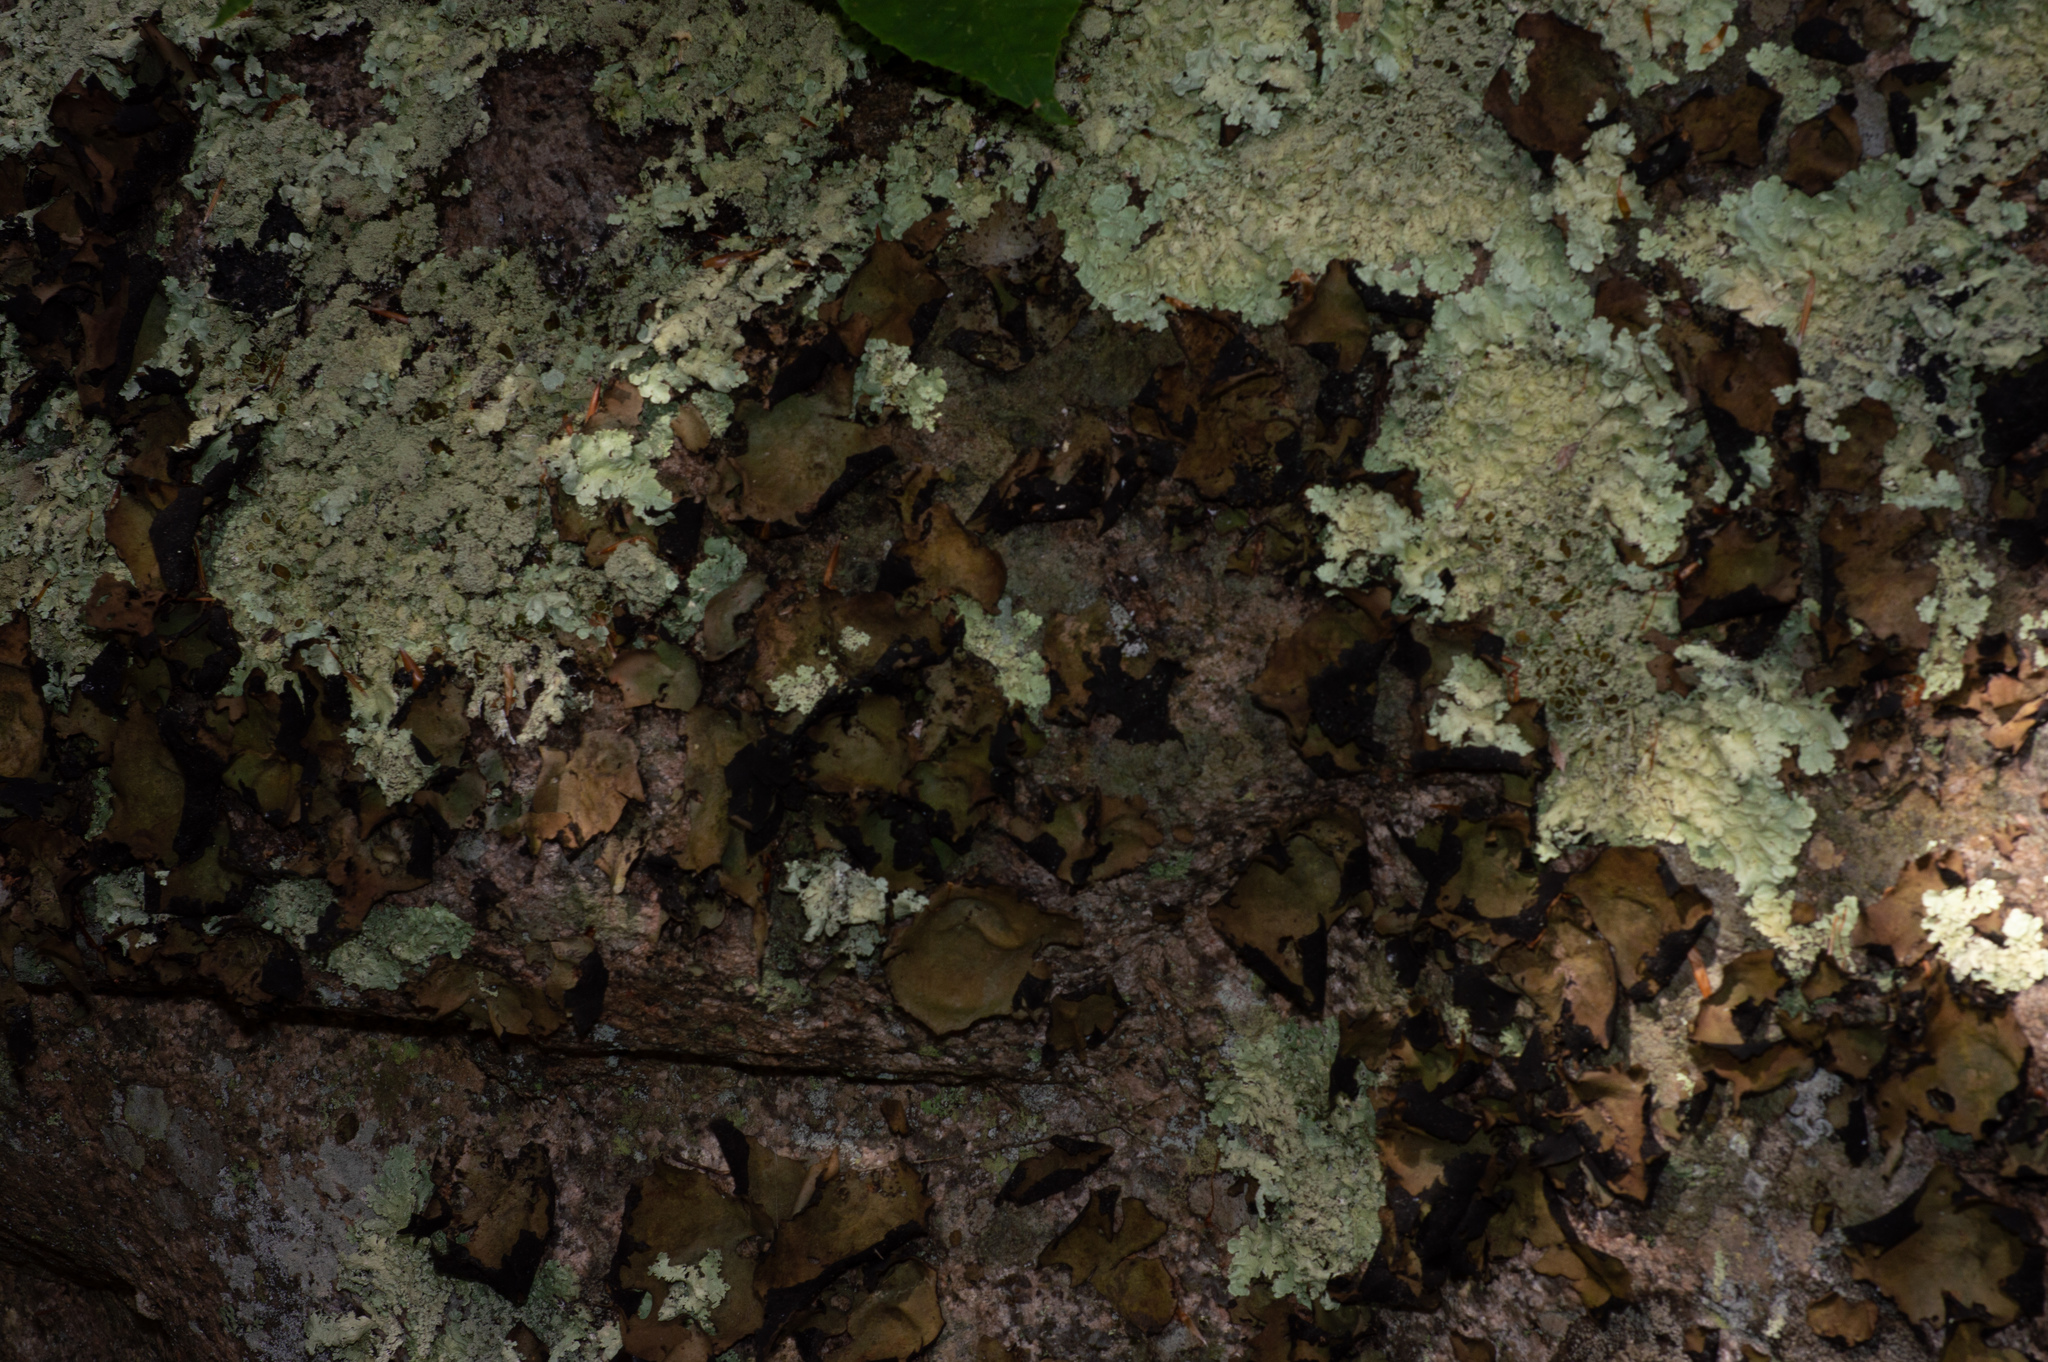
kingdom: Fungi
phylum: Ascomycota
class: Lecanoromycetes
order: Umbilicariales
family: Umbilicariaceae
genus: Umbilicaria
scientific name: Umbilicaria mammulata
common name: Smooth rock tripe
